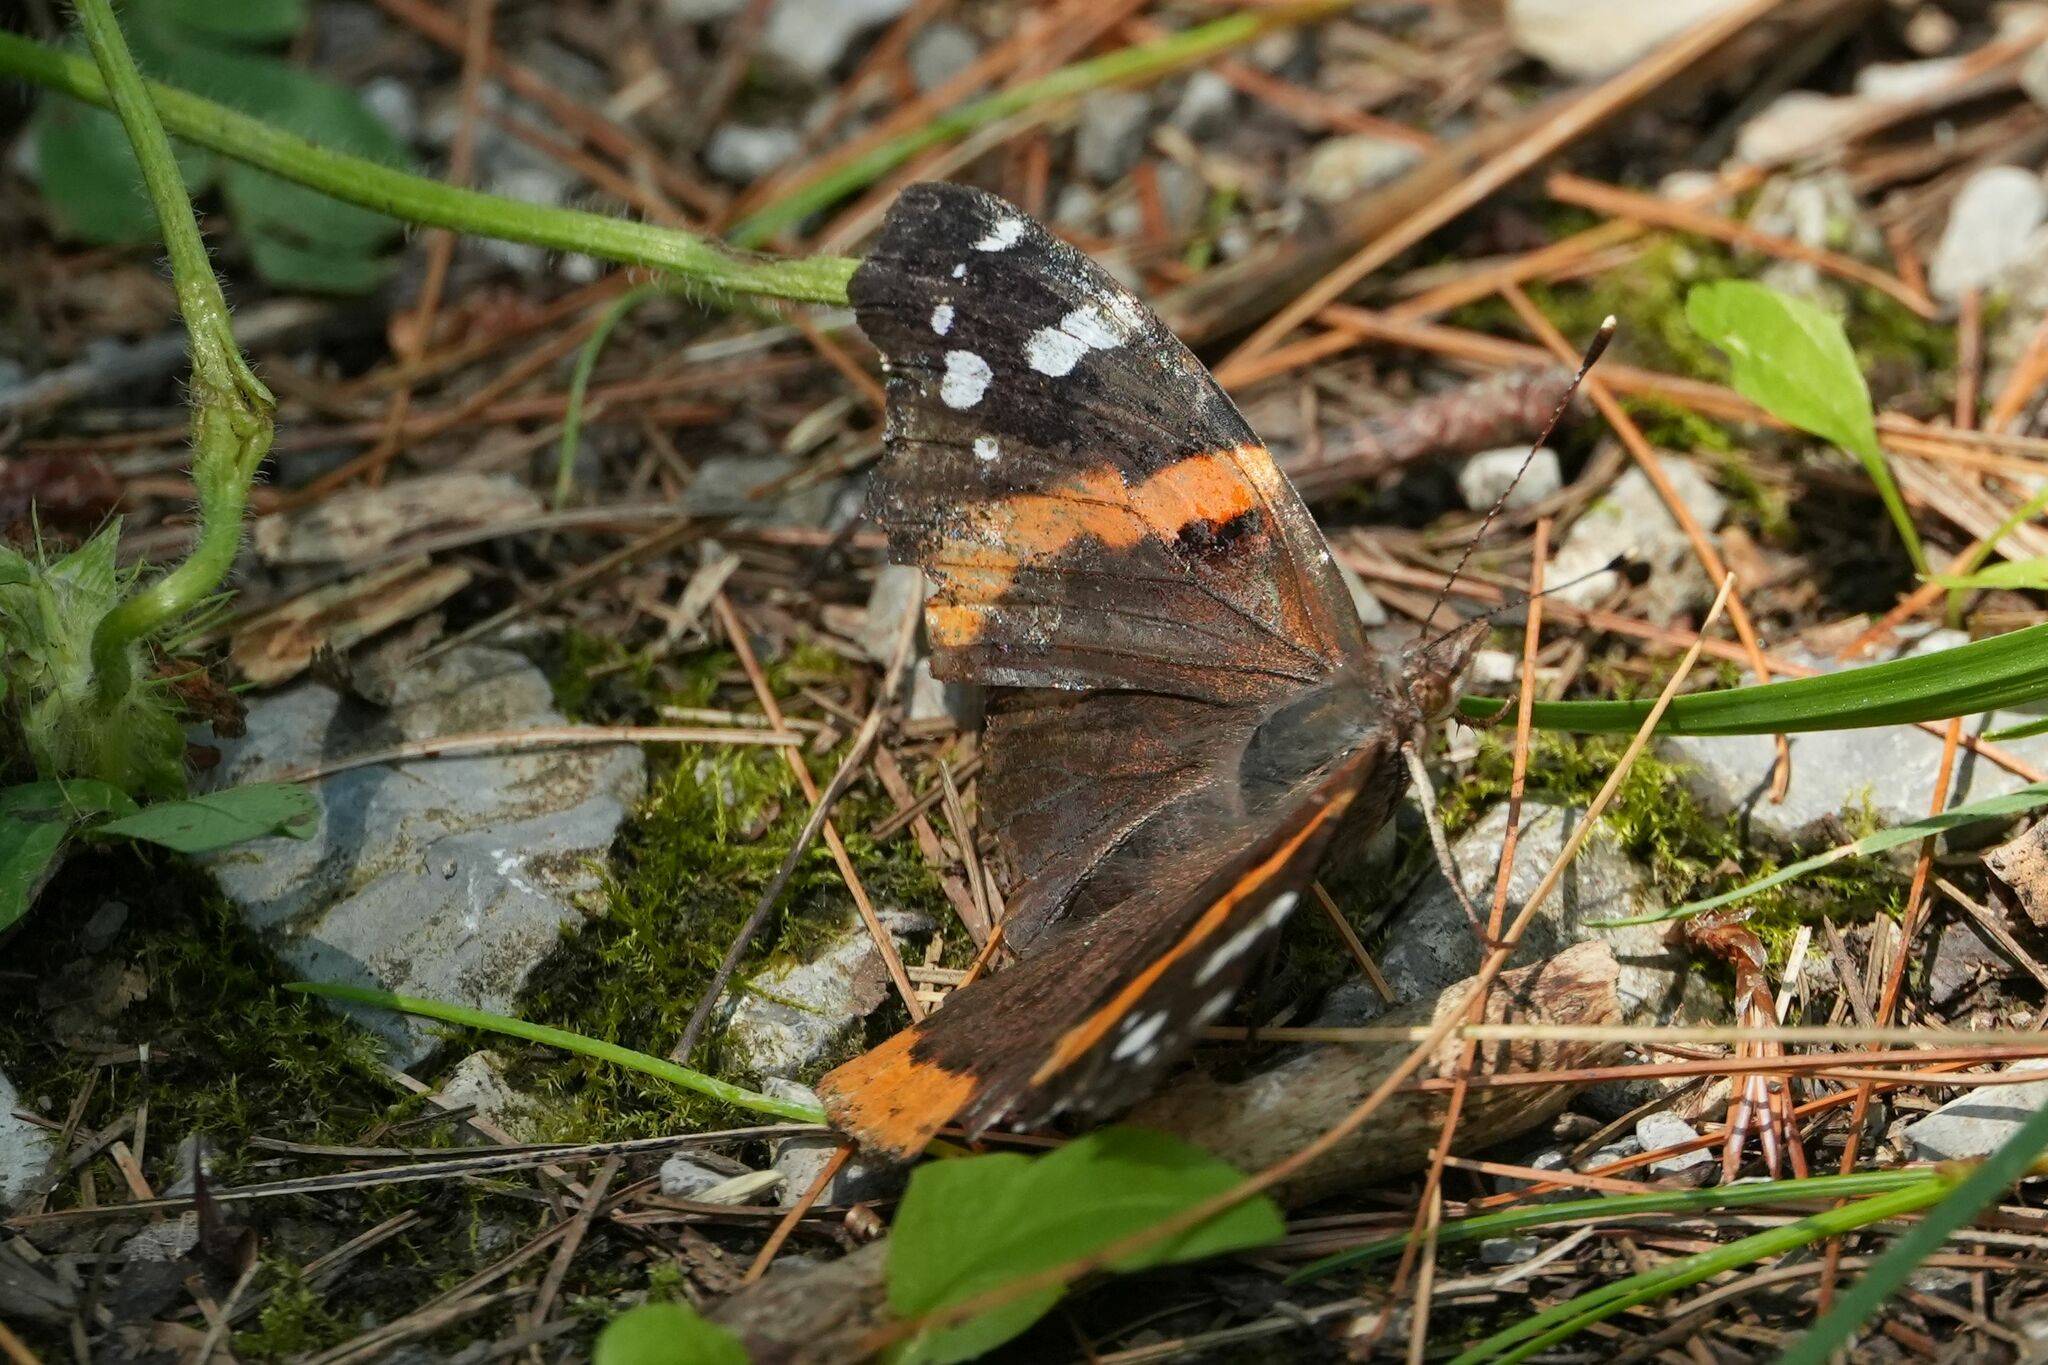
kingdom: Animalia
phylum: Arthropoda
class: Insecta
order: Lepidoptera
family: Nymphalidae
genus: Vanessa
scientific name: Vanessa atalanta
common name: Red admiral
